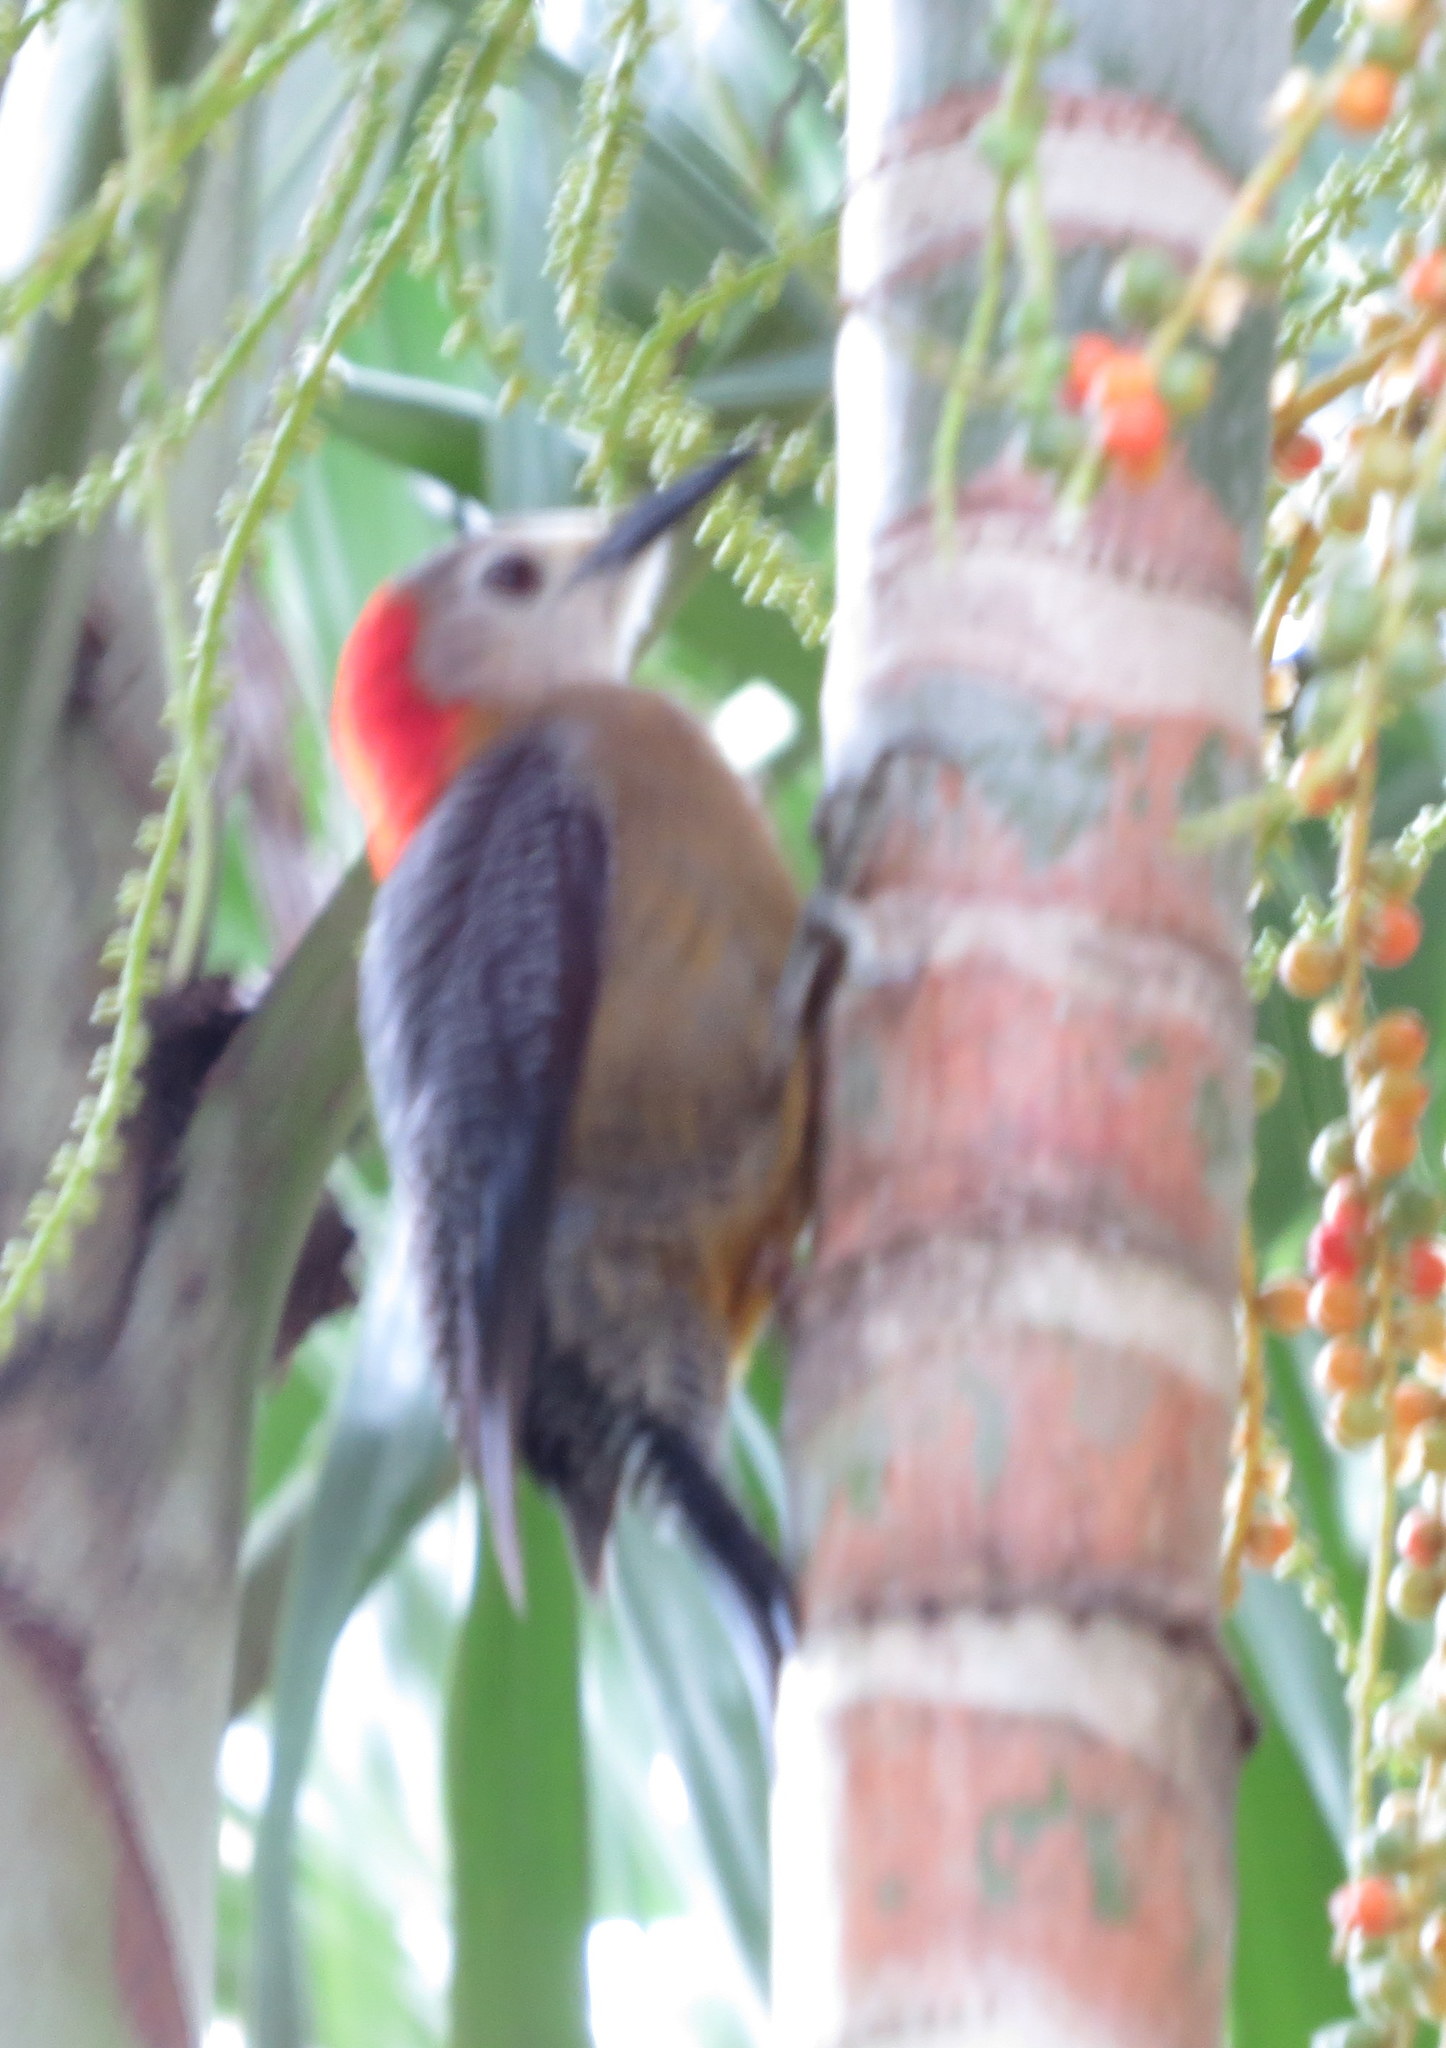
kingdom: Animalia
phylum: Chordata
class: Aves
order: Piciformes
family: Picidae
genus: Melanerpes
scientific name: Melanerpes radiolatus
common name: Jamaican woodpecker
